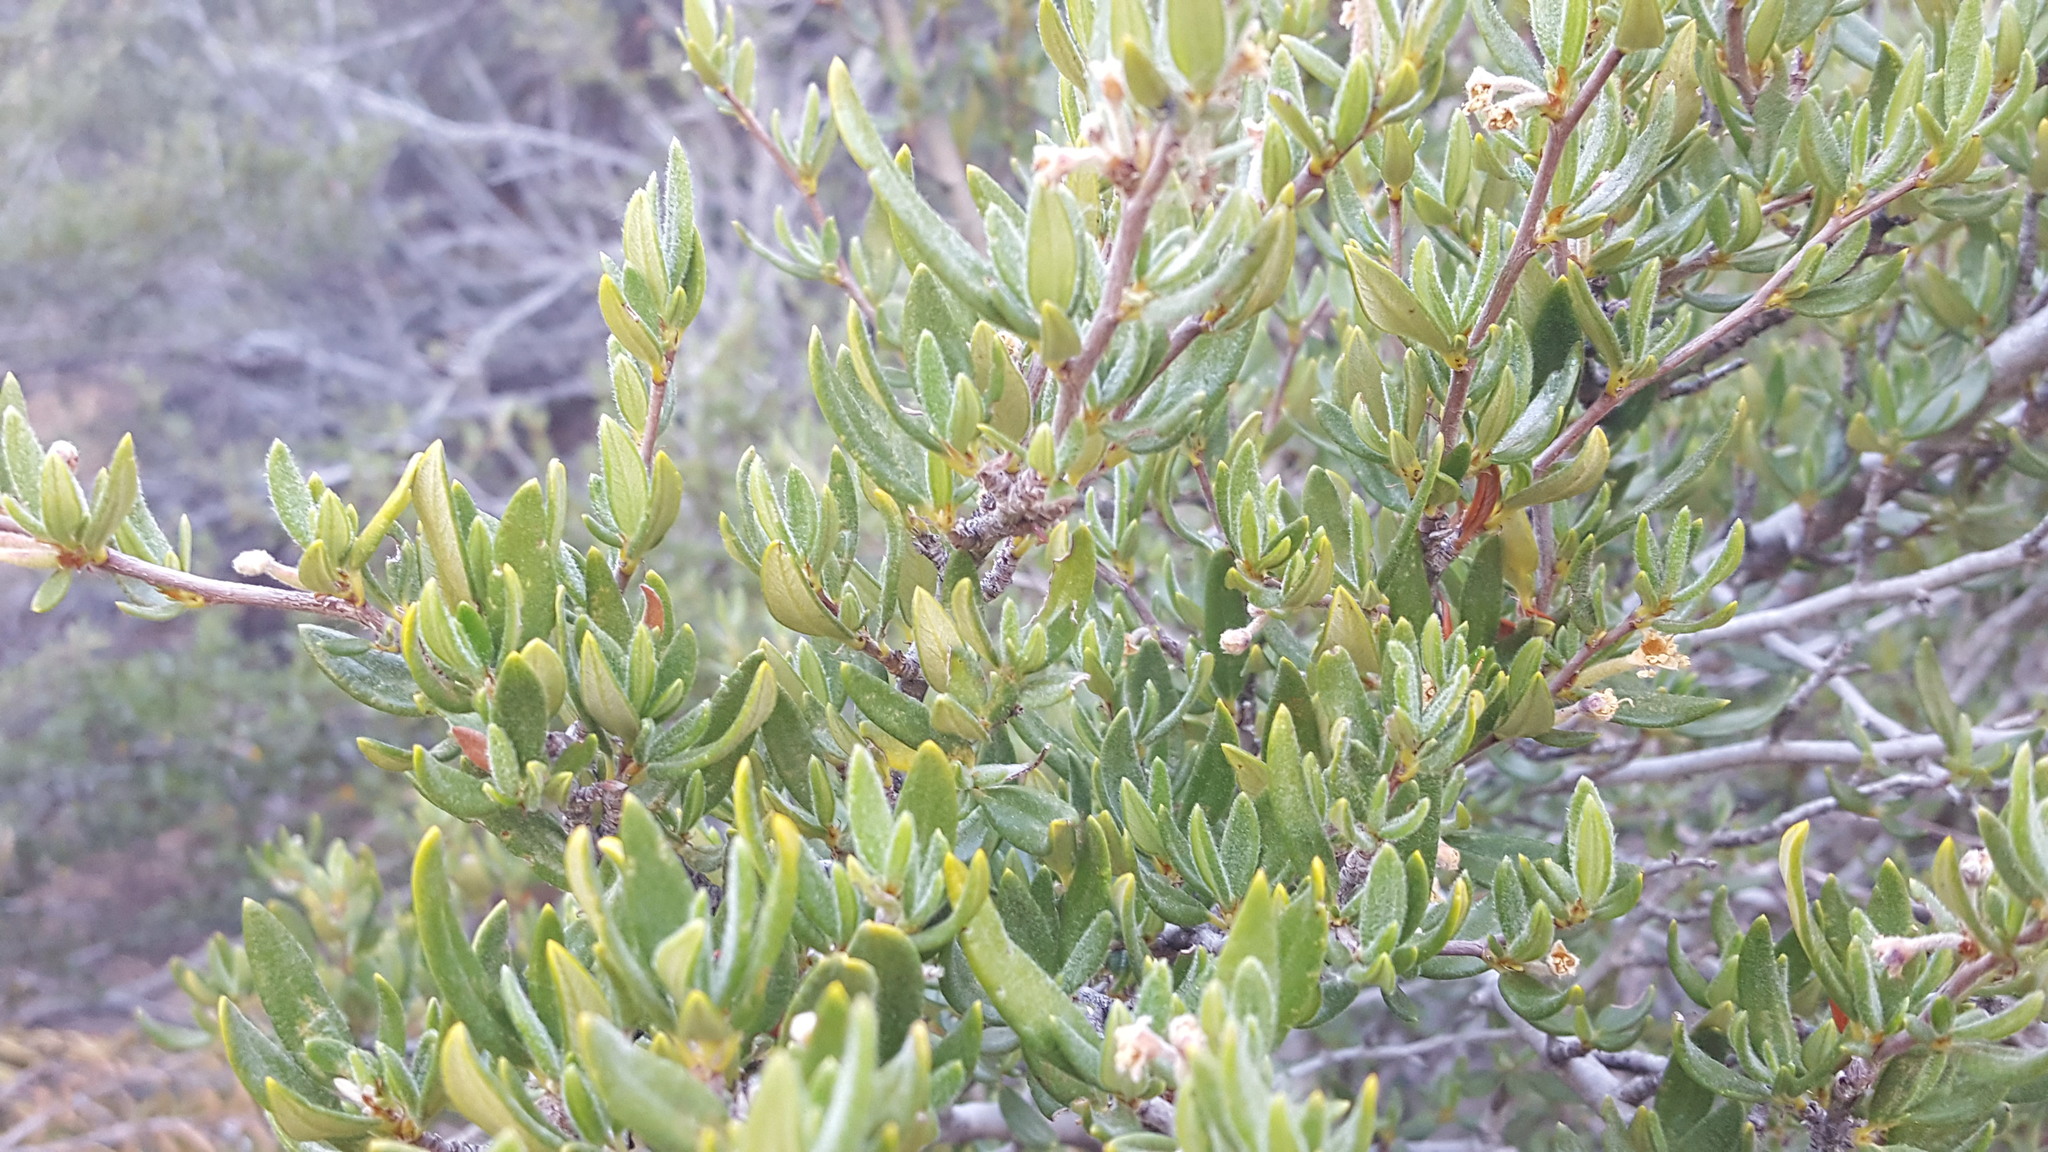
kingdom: Plantae
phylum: Tracheophyta
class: Magnoliopsida
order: Rosales
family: Rosaceae
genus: Cercocarpus
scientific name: Cercocarpus ledifolius
